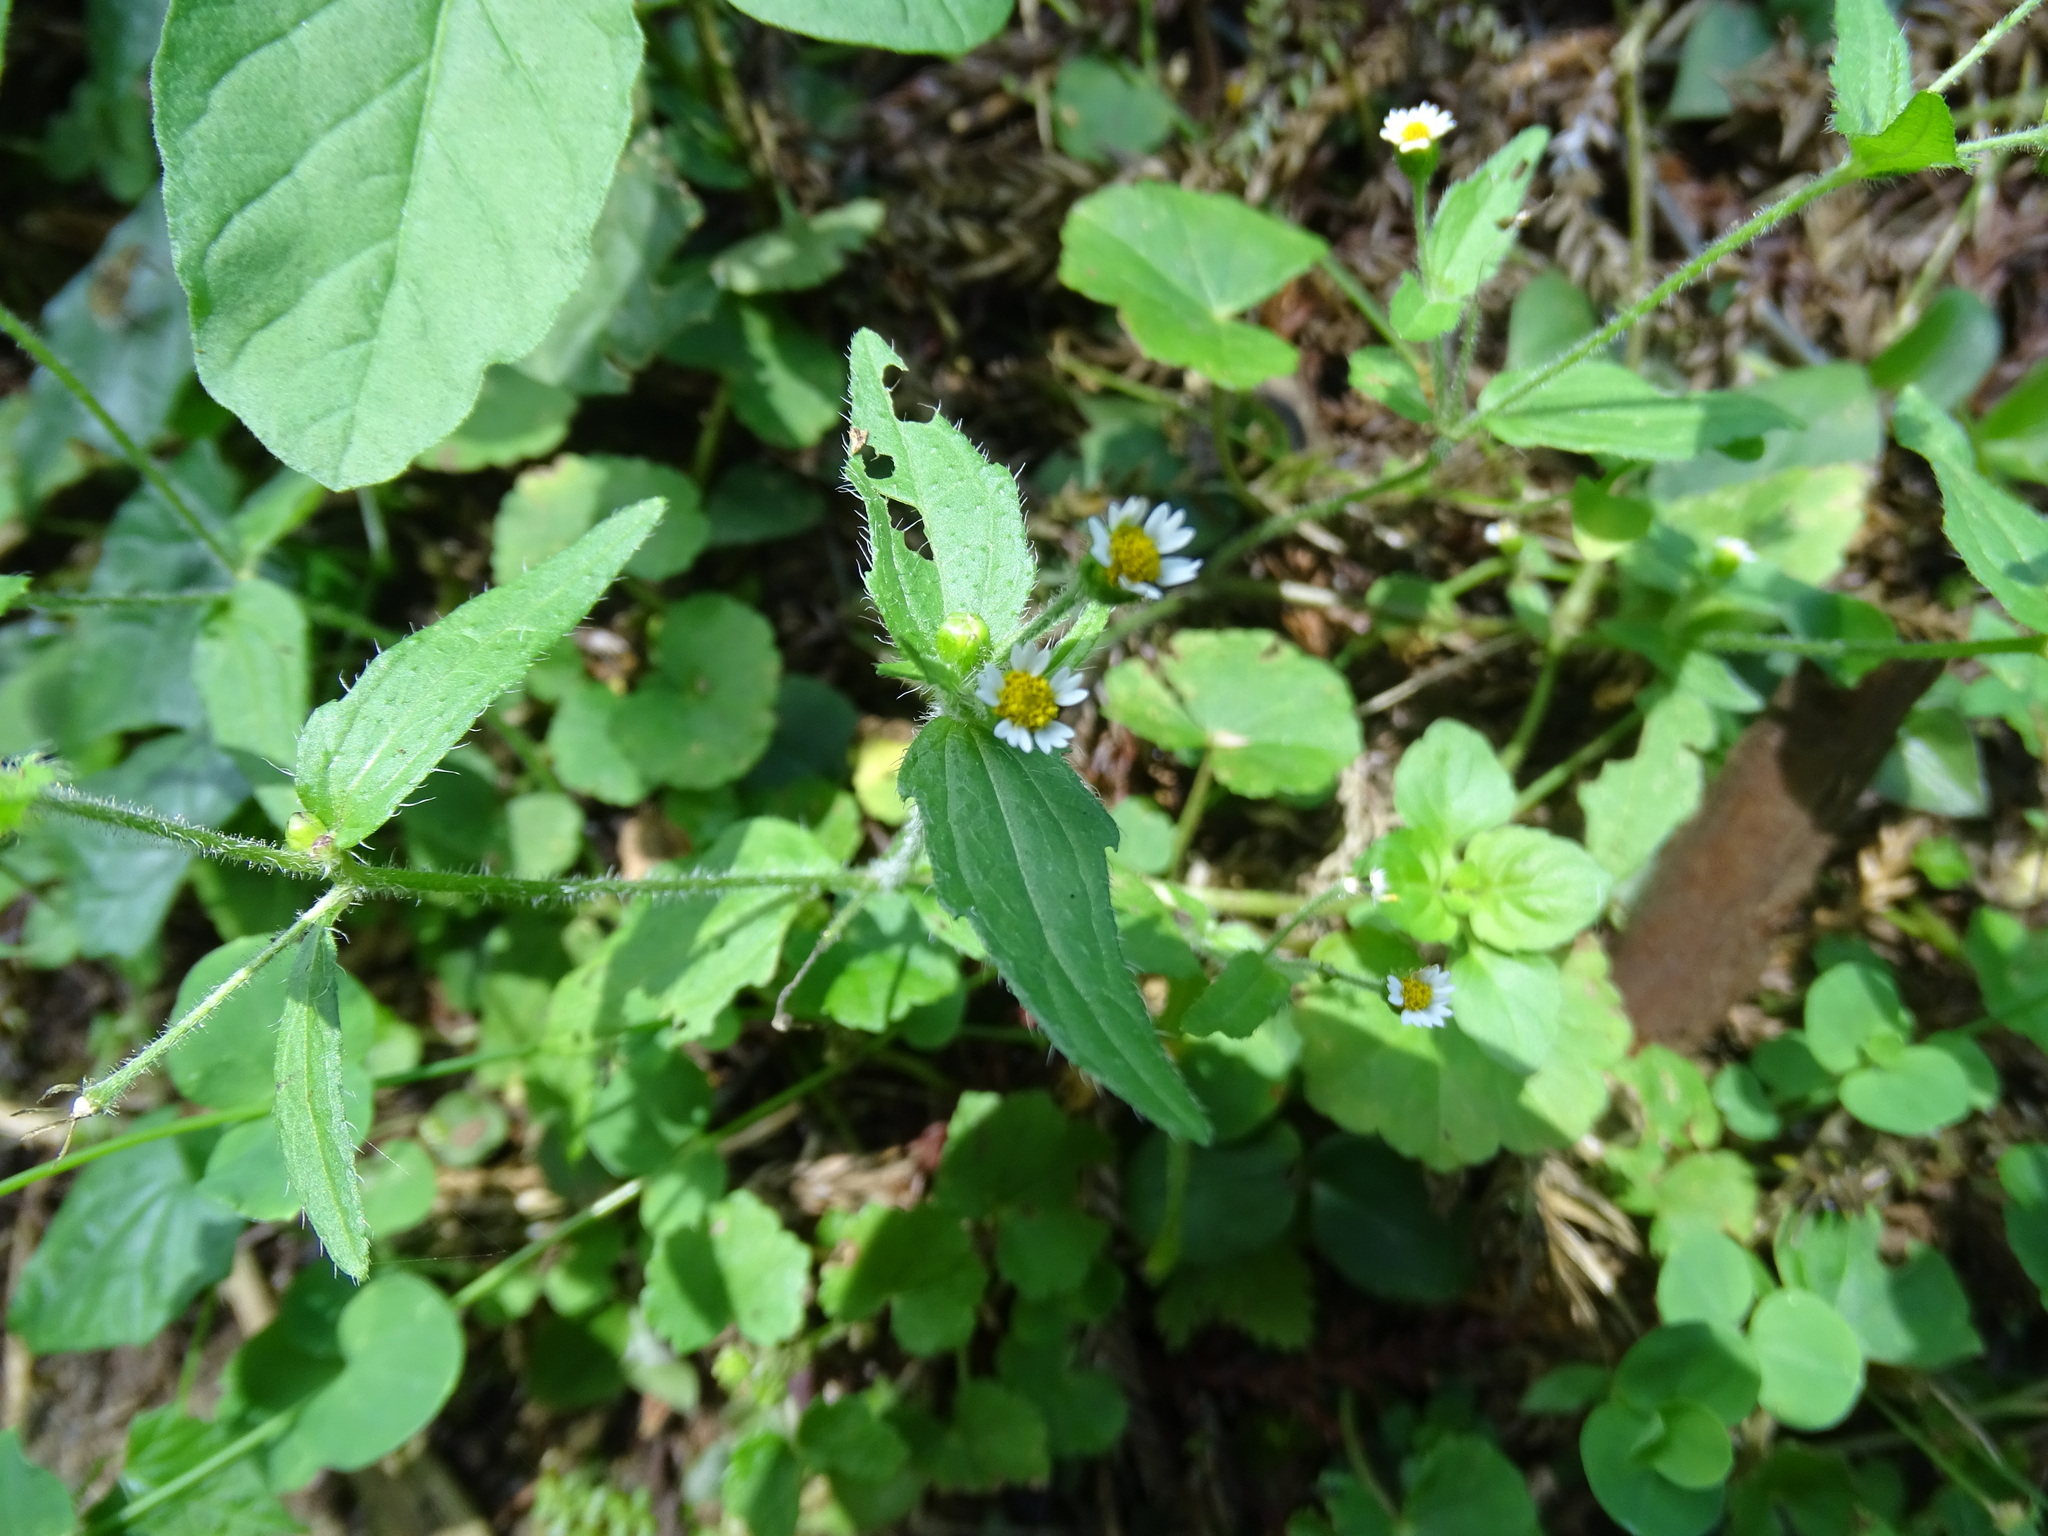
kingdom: Plantae
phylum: Tracheophyta
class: Magnoliopsida
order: Asterales
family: Asteraceae
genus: Galinsoga
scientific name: Galinsoga quadriradiata
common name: Shaggy soldier
